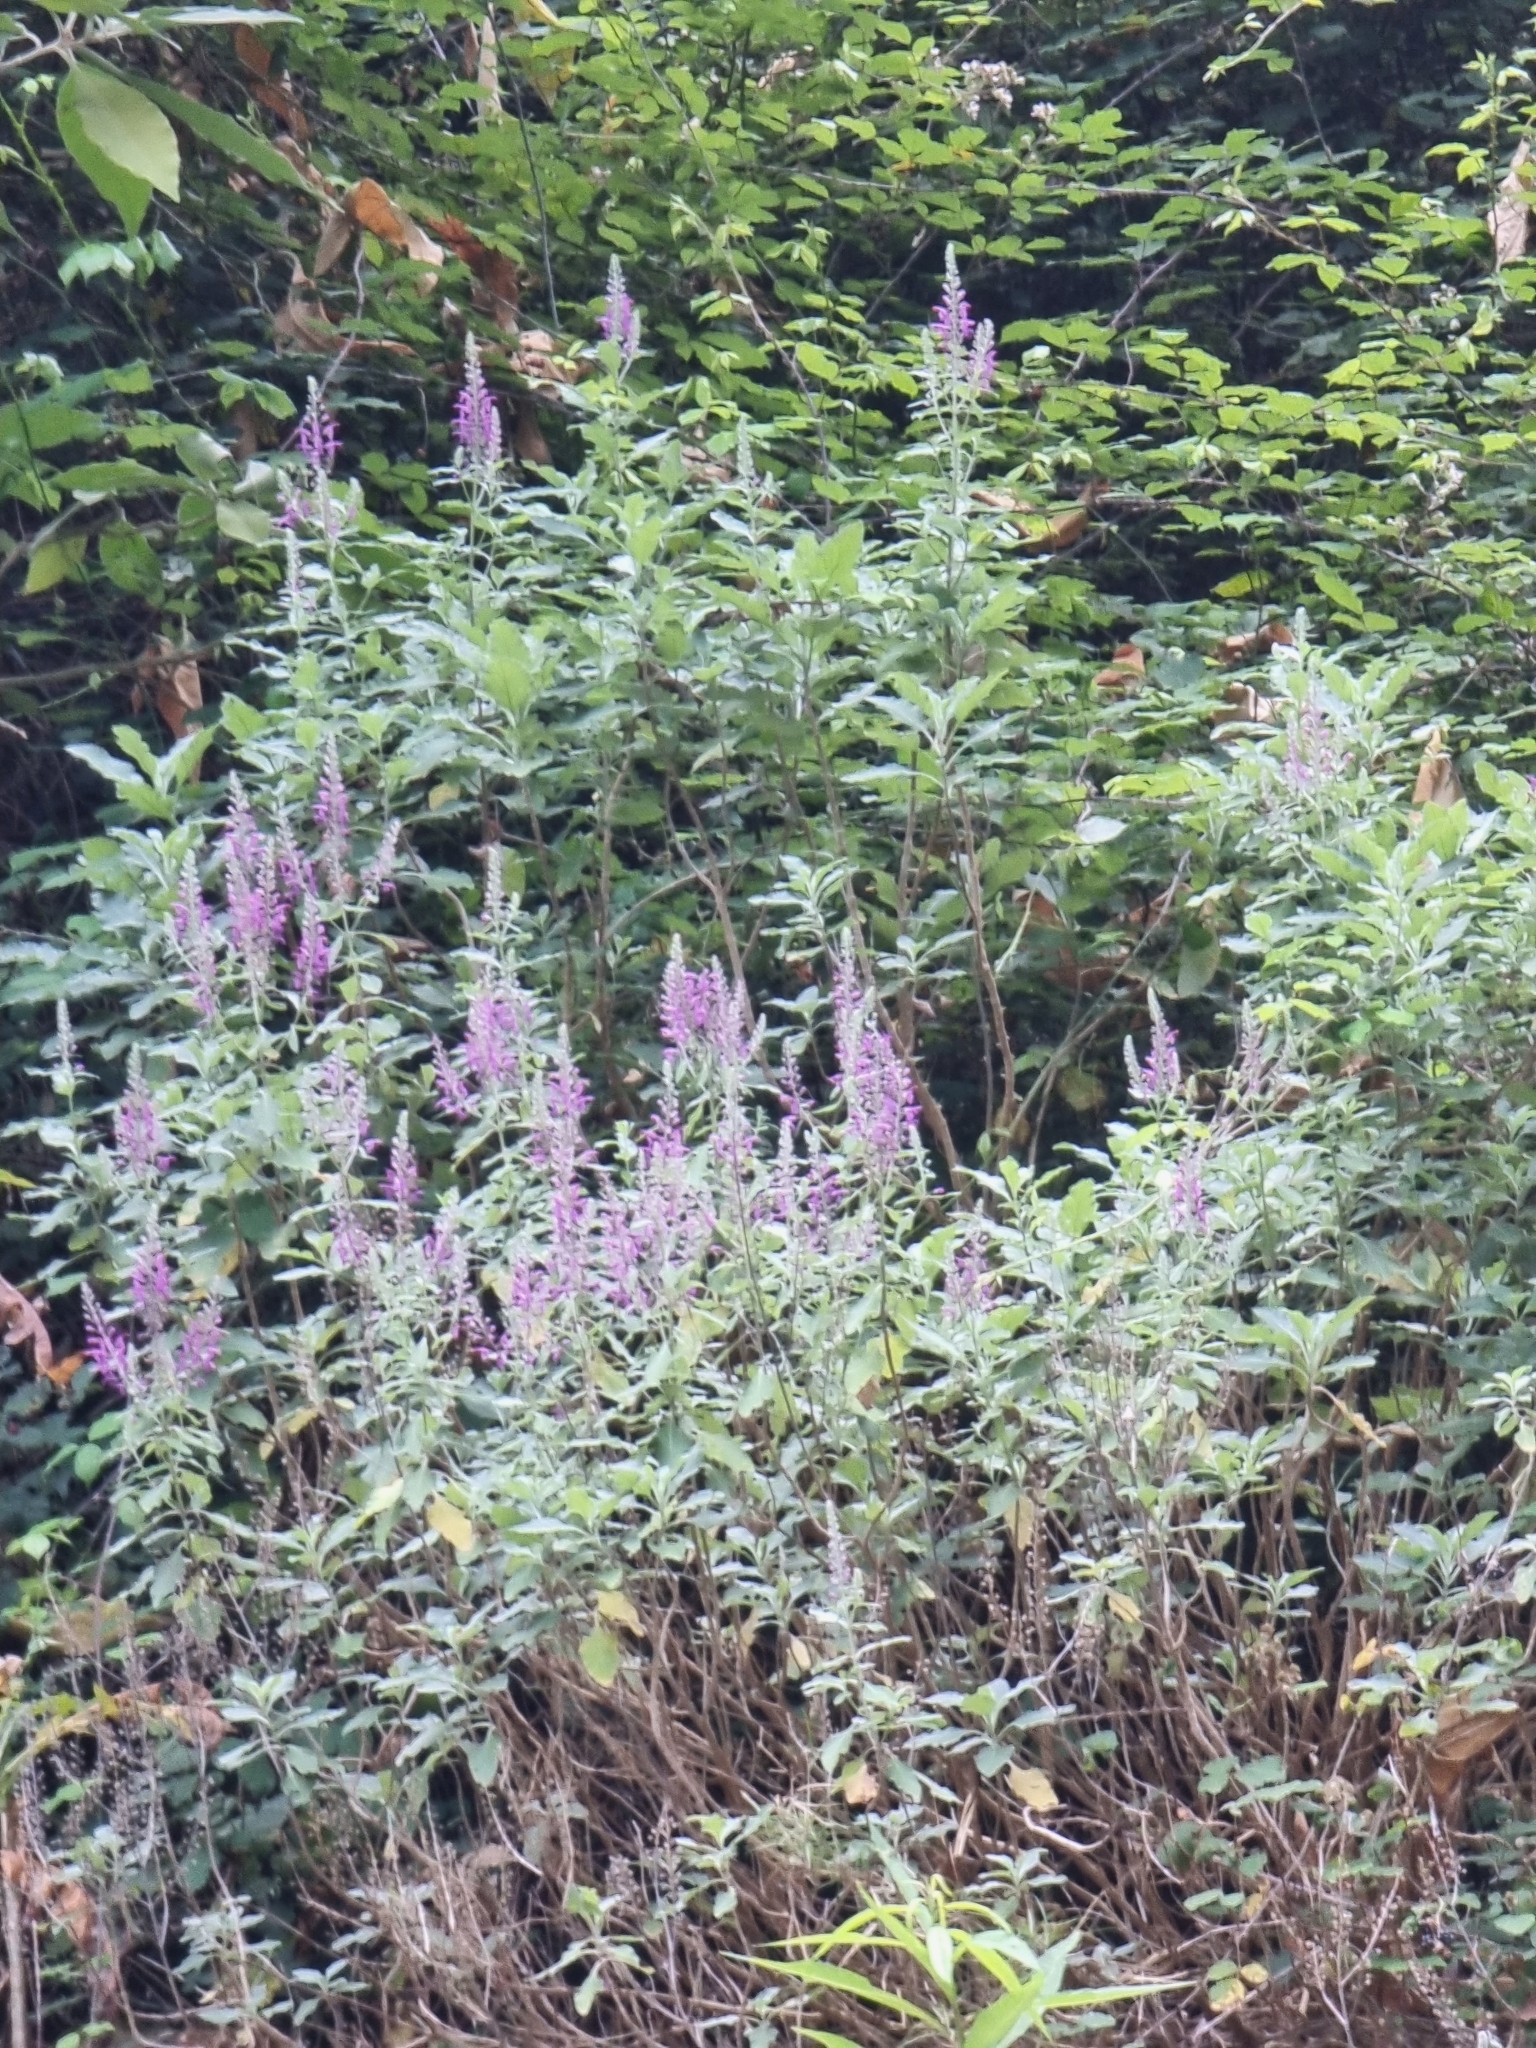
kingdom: Plantae
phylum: Tracheophyta
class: Magnoliopsida
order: Lamiales
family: Lamiaceae
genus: Teucrium
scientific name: Teucrium betonicum
